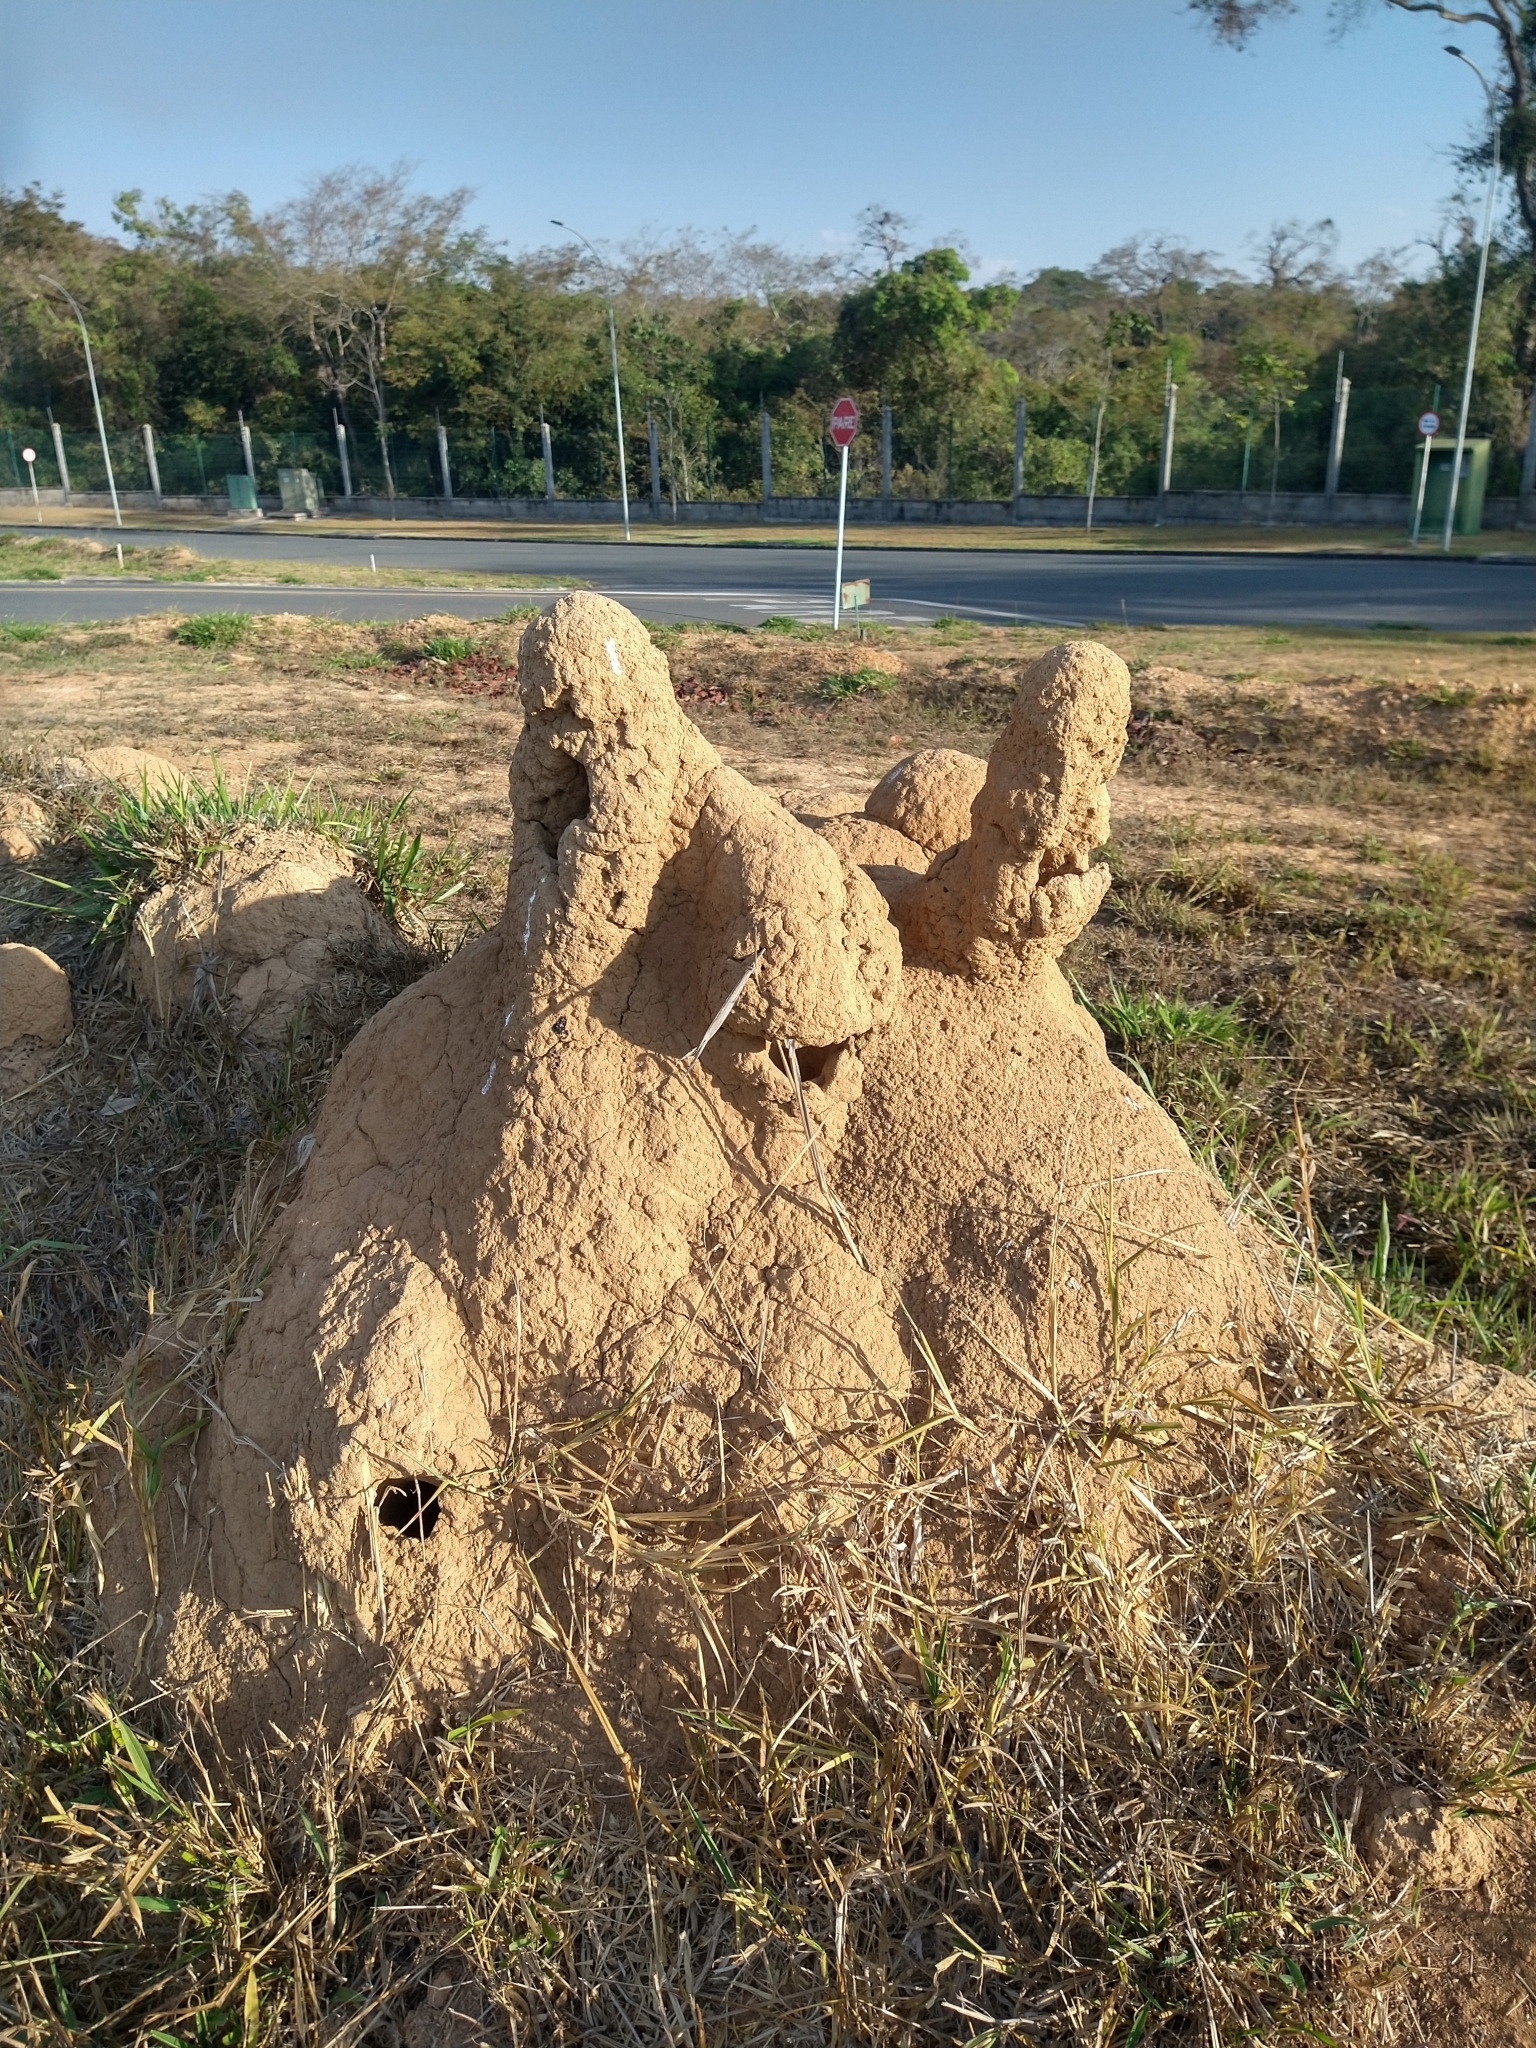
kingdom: Animalia
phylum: Arthropoda
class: Insecta
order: Blattodea
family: Termitidae
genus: Cornitermes
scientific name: Cornitermes bequaerti
